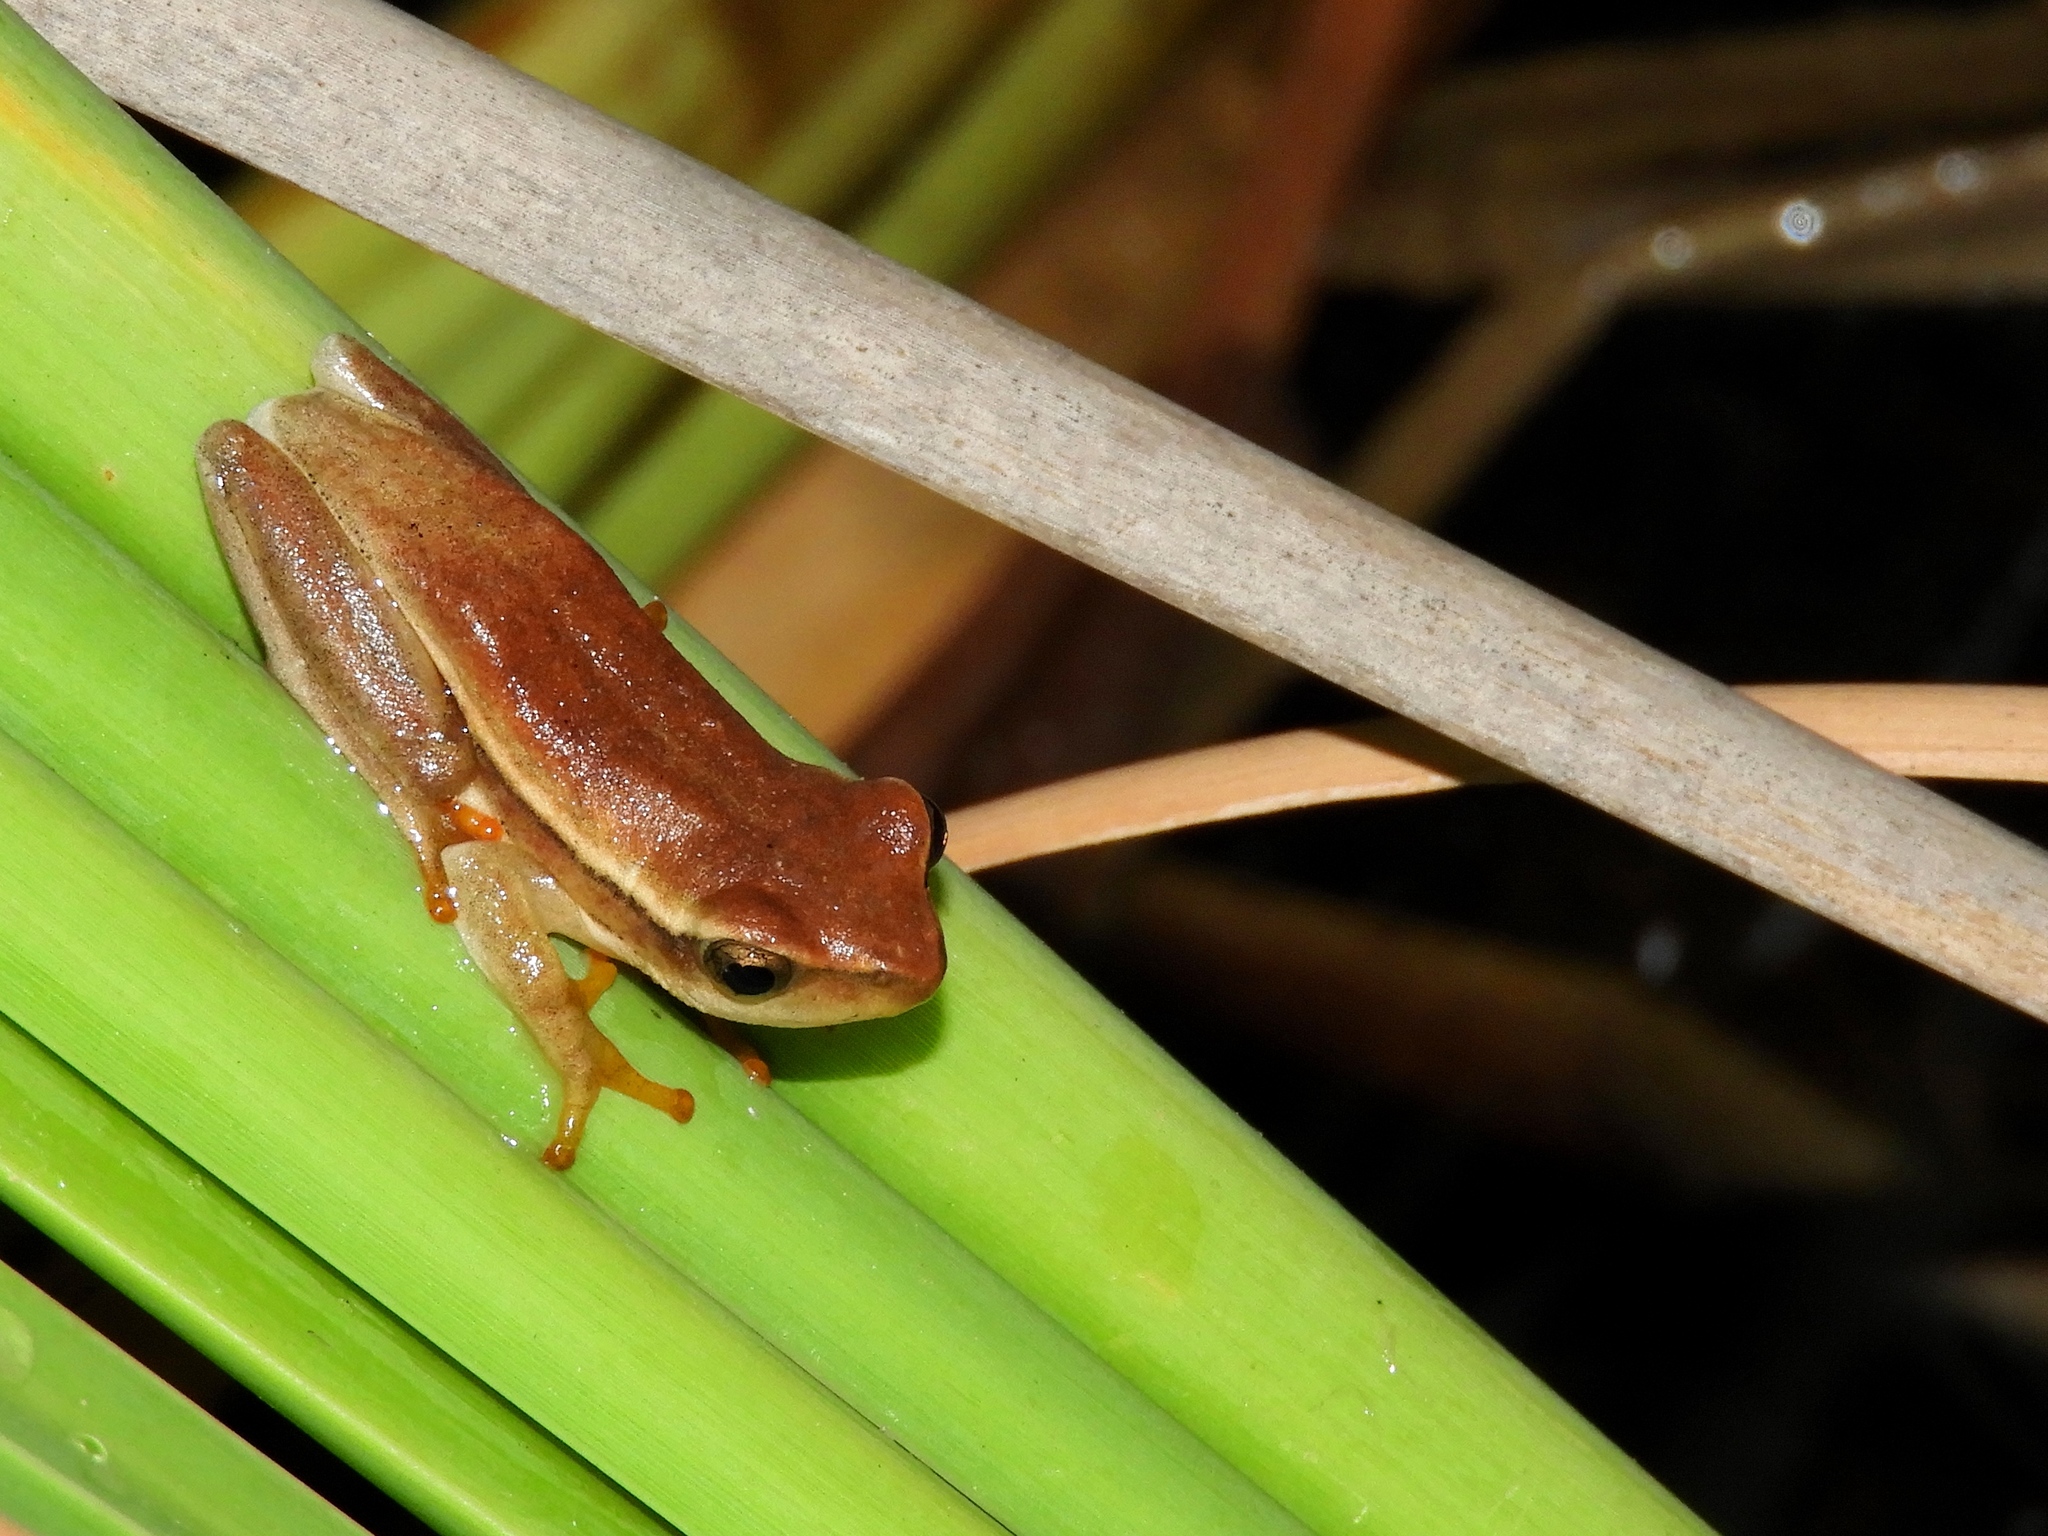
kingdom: Animalia
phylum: Chordata
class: Amphibia
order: Anura
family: Hyperoliidae
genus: Hyperolius
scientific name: Hyperolius horstockii
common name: Arum lily frog
